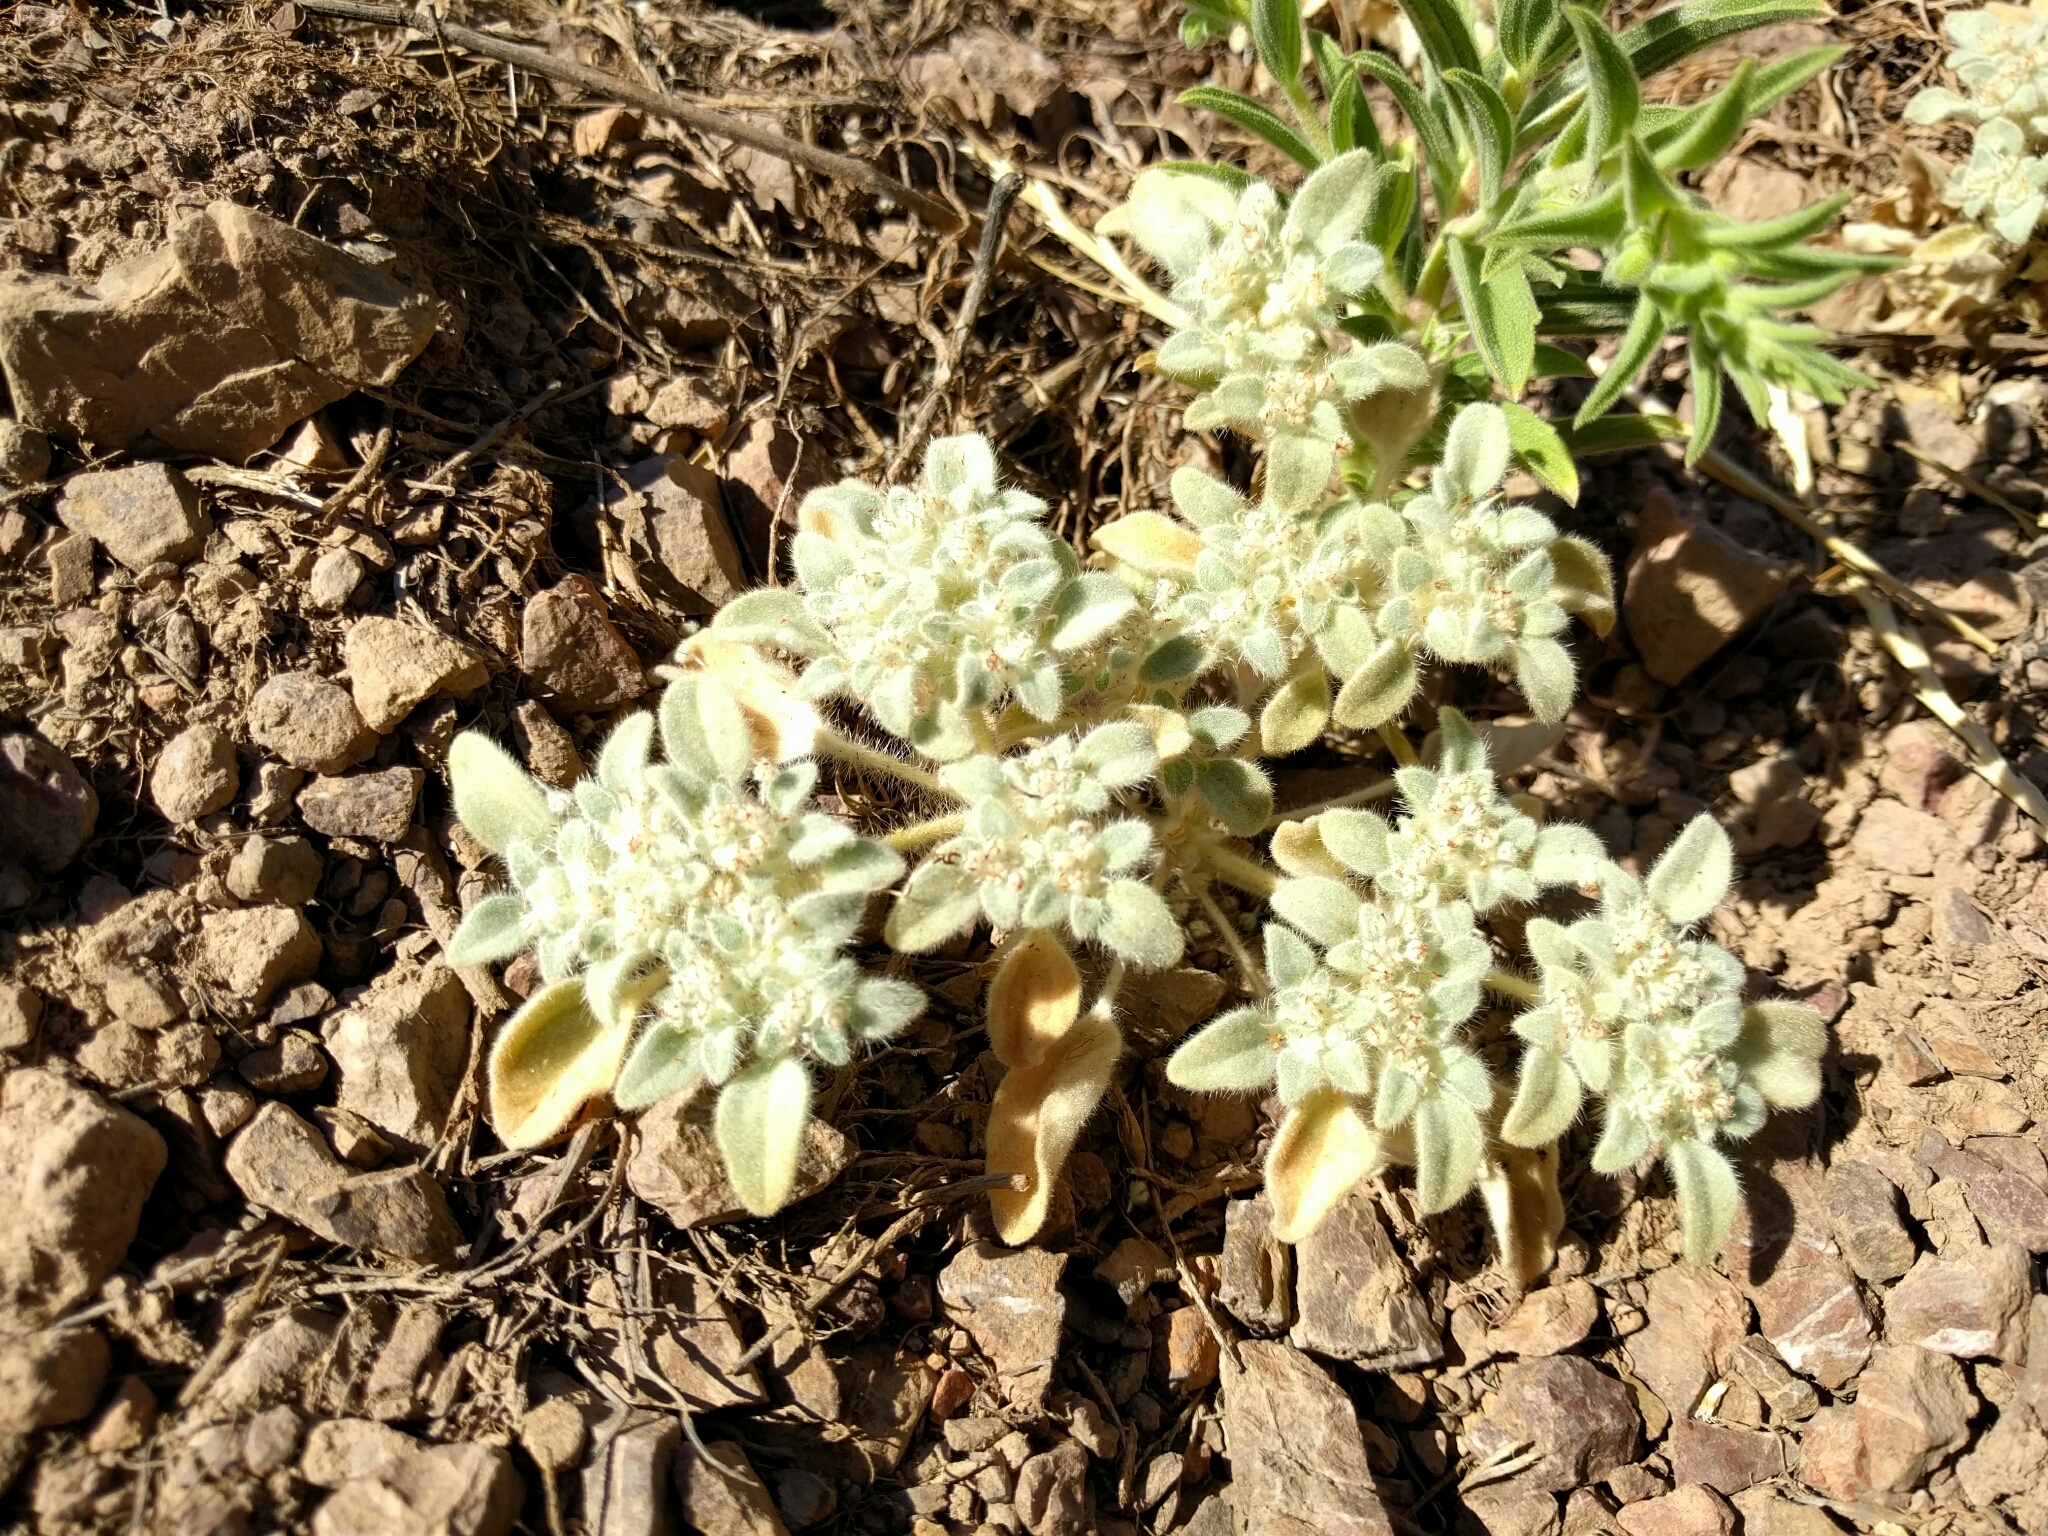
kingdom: Plantae
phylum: Tracheophyta
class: Magnoliopsida
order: Malpighiales
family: Euphorbiaceae
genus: Croton
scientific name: Croton setiger
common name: Dove weed
